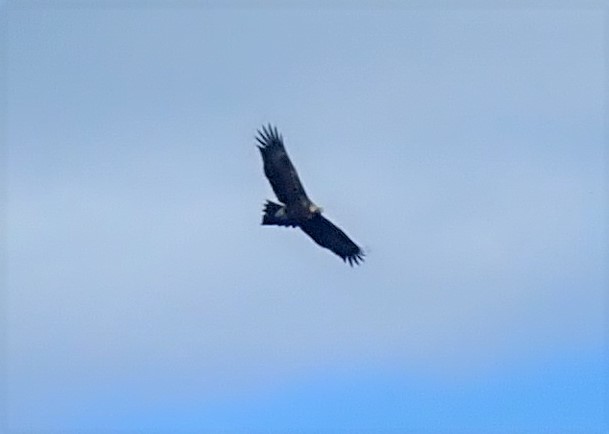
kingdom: Animalia
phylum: Chordata
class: Aves
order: Accipitriformes
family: Accipitridae
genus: Aquila
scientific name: Aquila audax
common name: Wedge-tailed eagle
